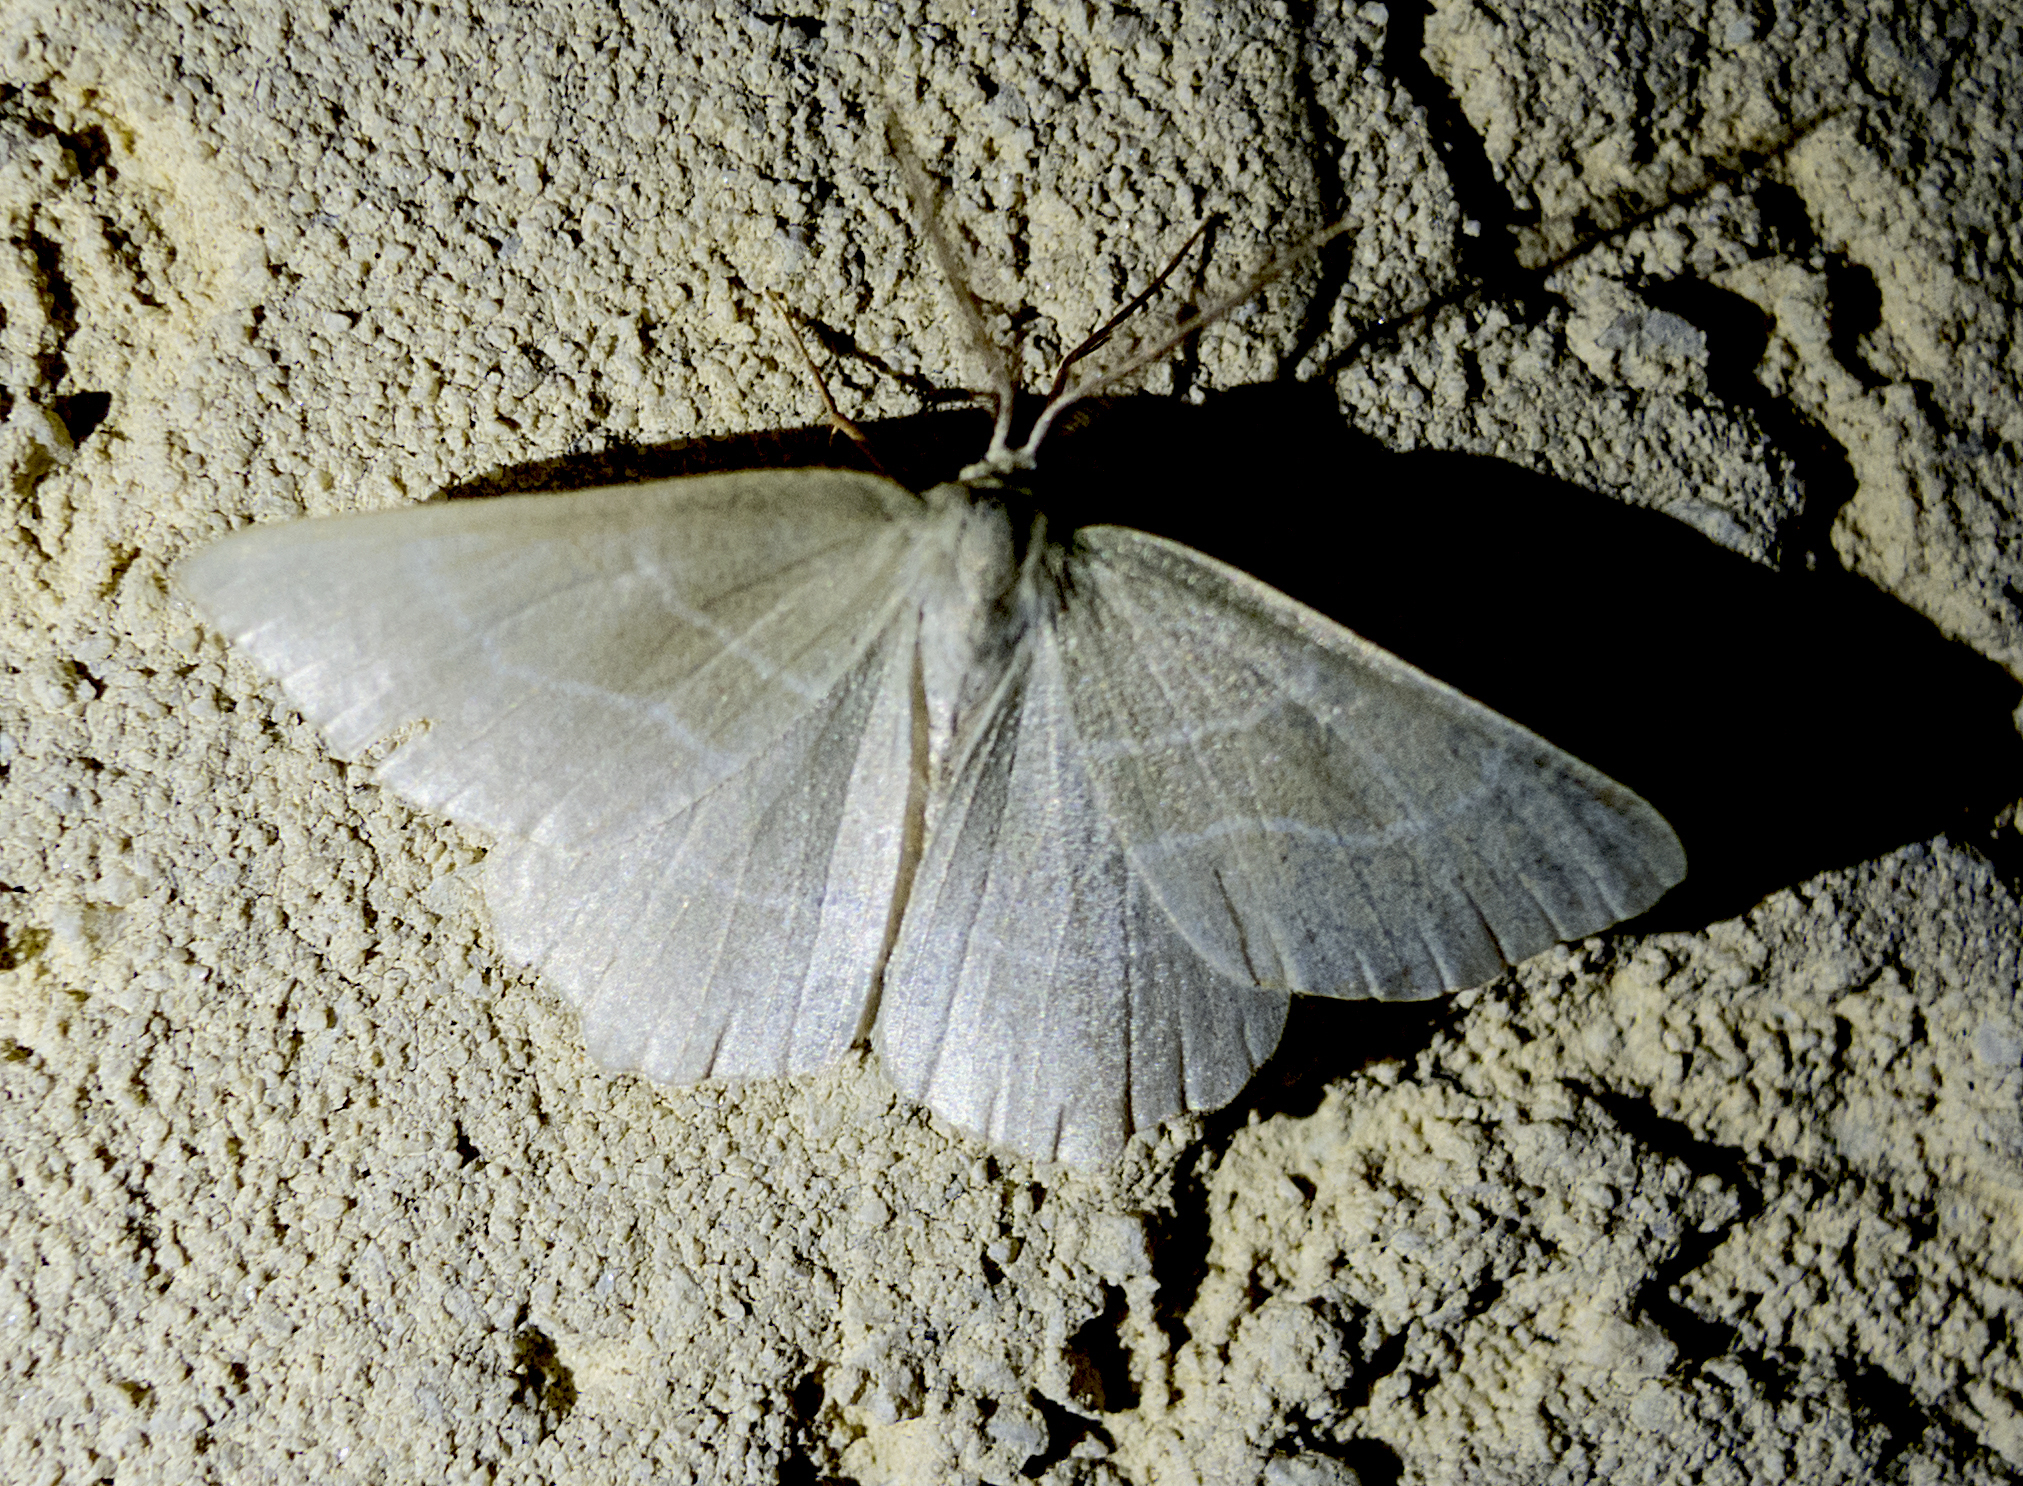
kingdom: Animalia
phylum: Arthropoda
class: Insecta
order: Lepidoptera
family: Geometridae
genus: Thalera
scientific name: Thalera fimbrialis
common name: Sussex emerald
